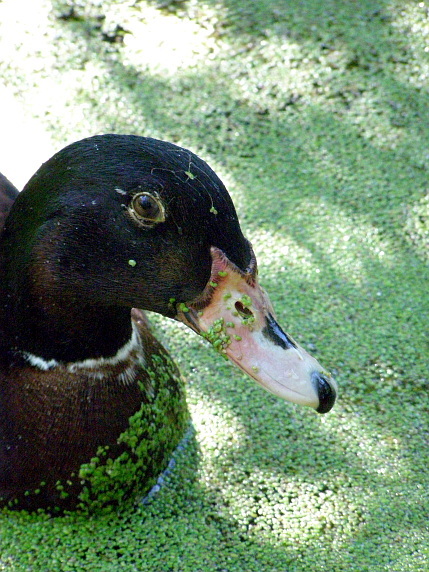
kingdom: Plantae
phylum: Tracheophyta
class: Liliopsida
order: Alismatales
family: Araceae
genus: Lemna
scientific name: Lemna minor
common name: Common duckweed
